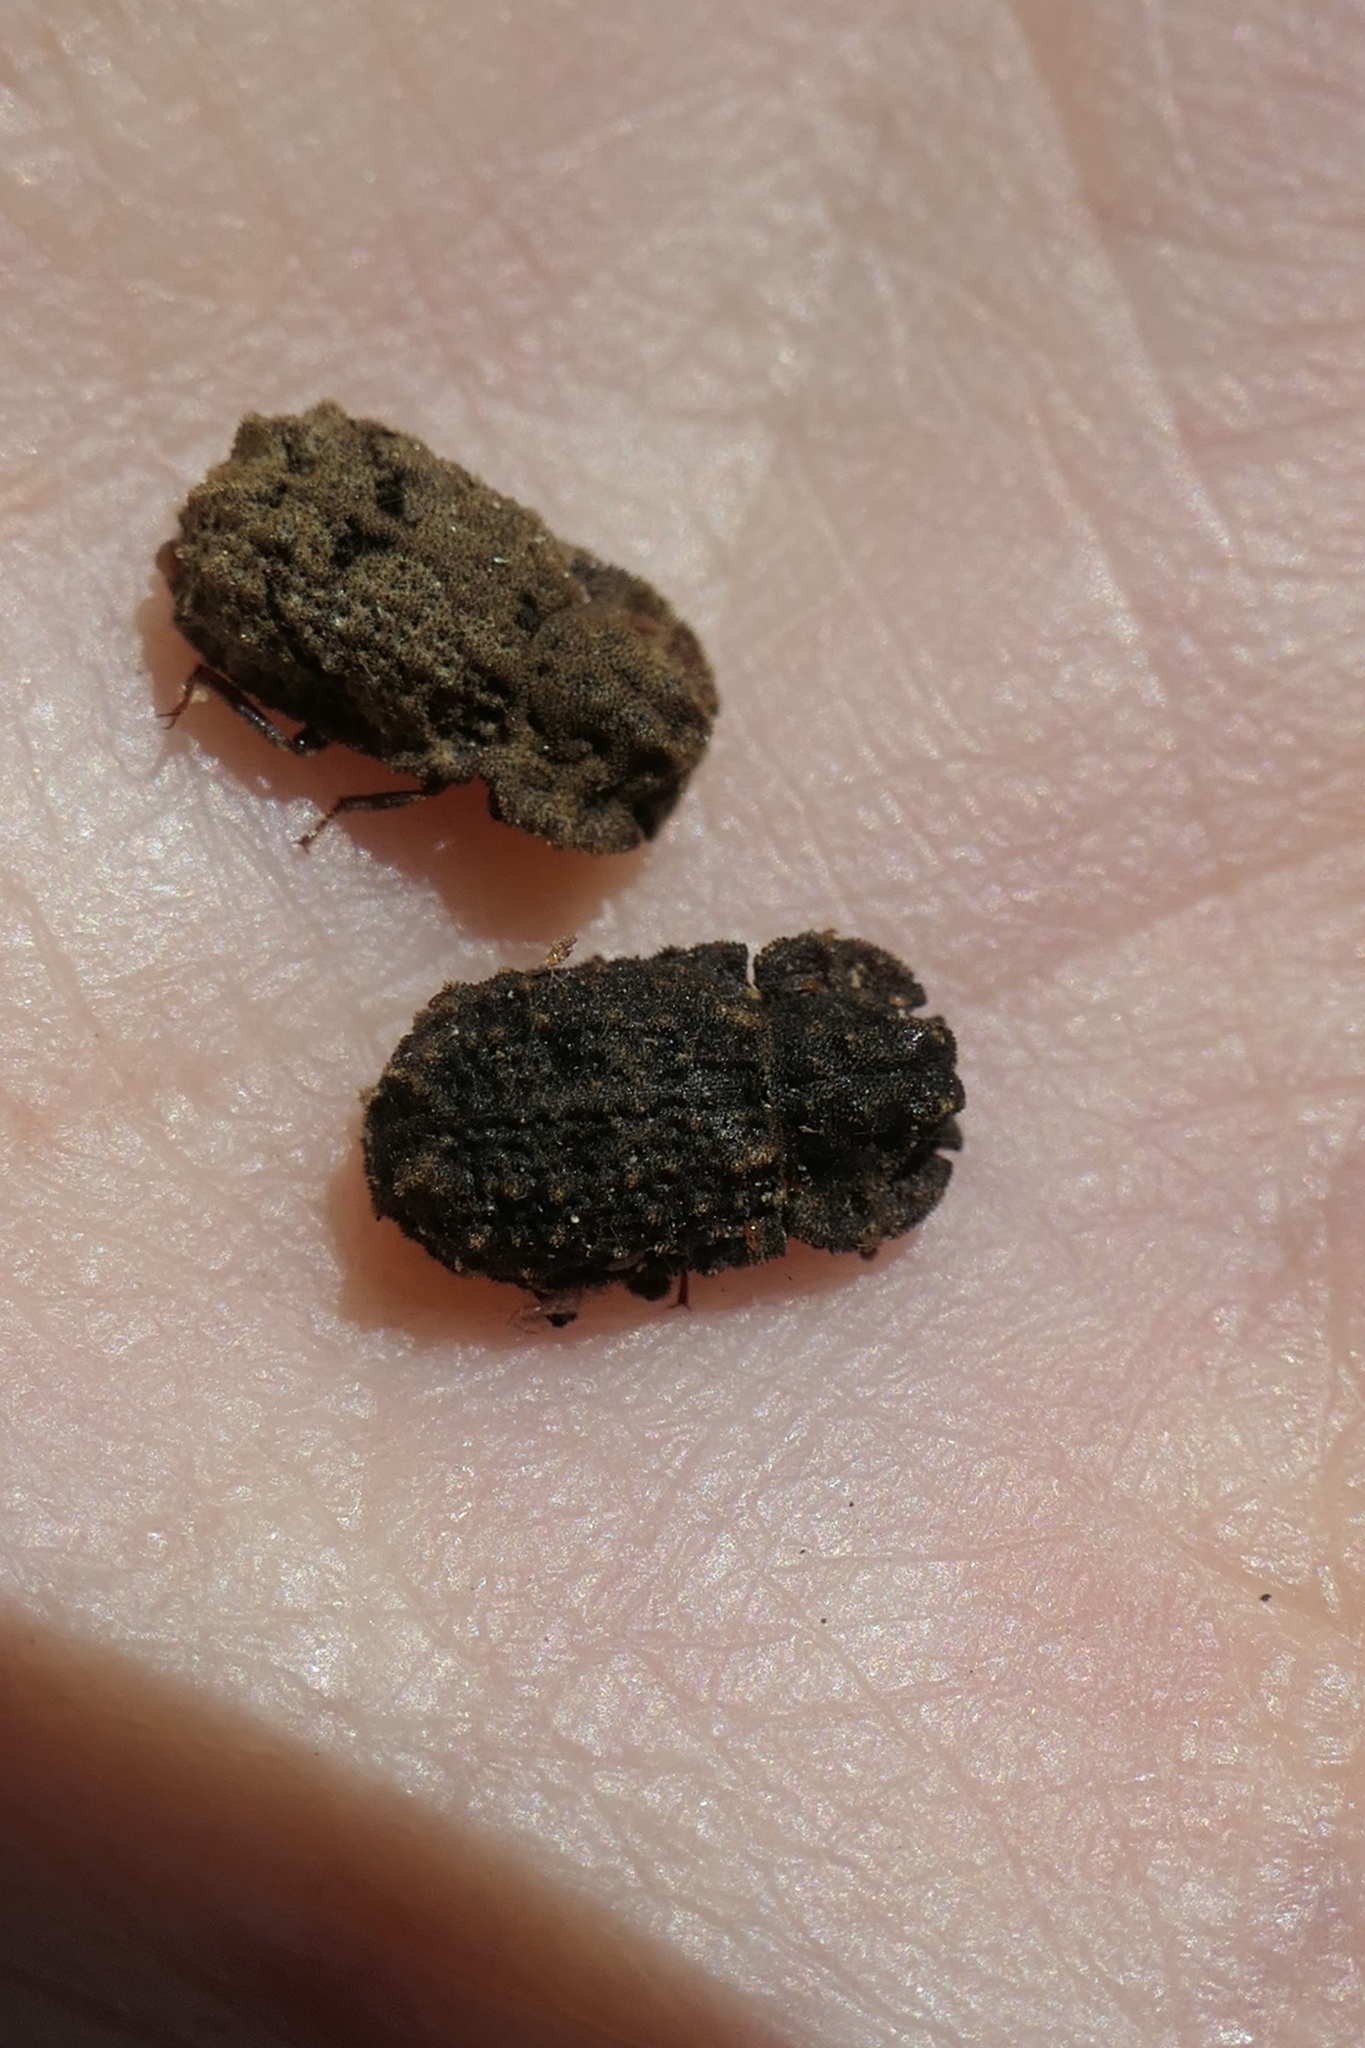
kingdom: Animalia
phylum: Arthropoda
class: Insecta
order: Coleoptera
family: Zopheridae
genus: Pristoderus
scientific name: Pristoderus
